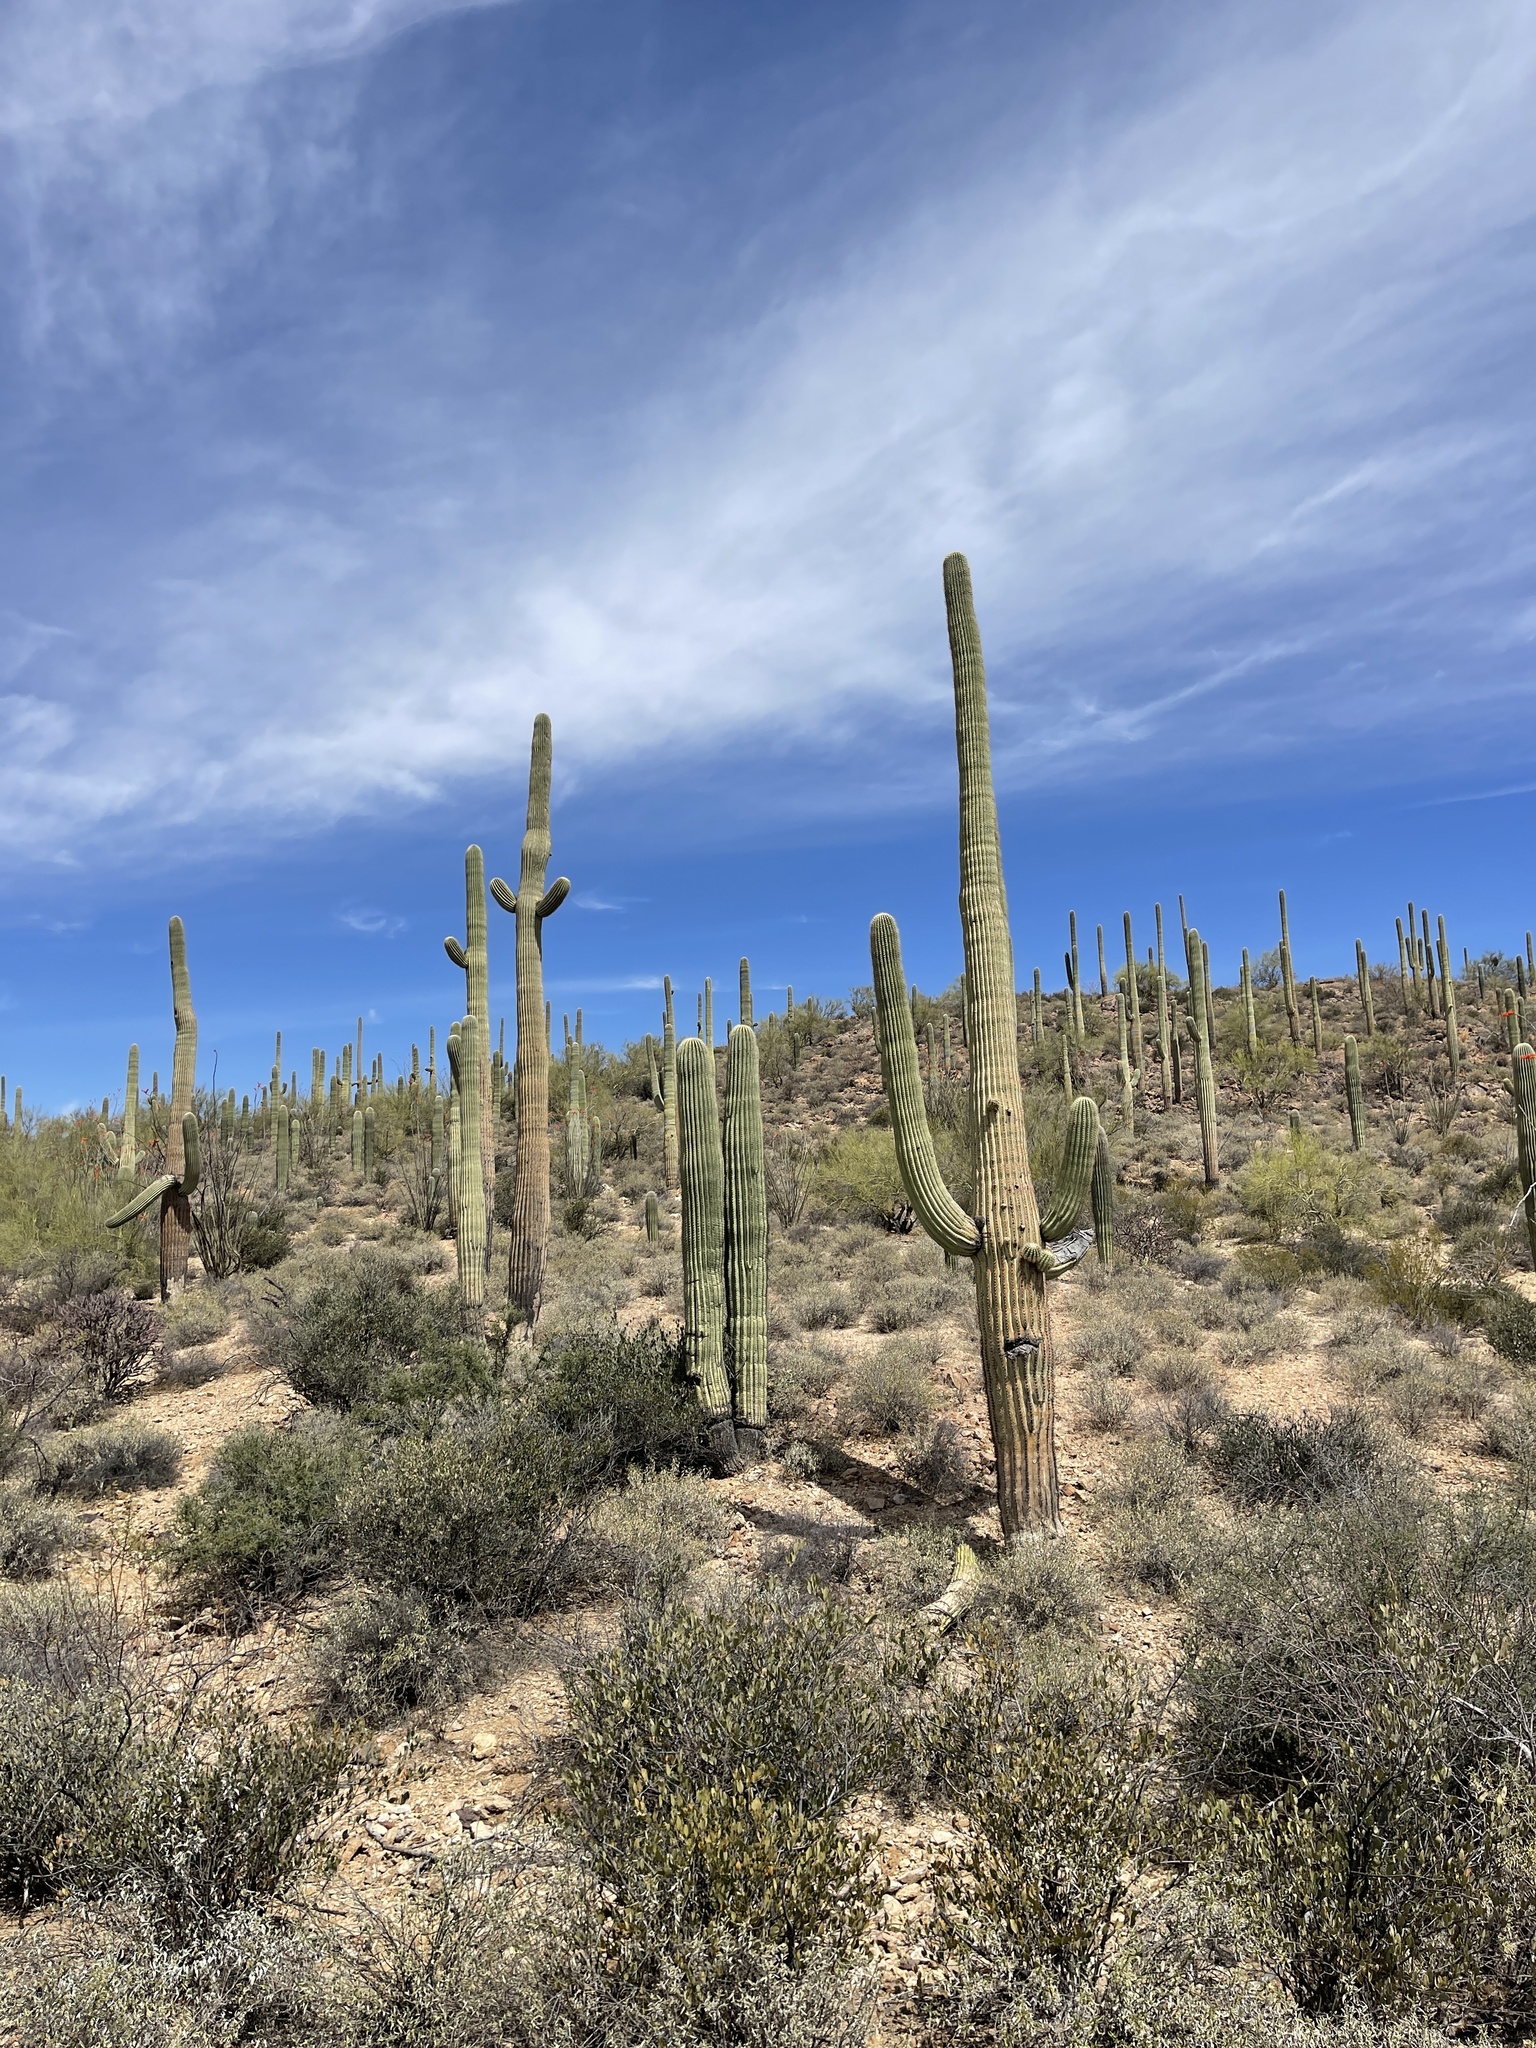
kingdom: Plantae
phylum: Tracheophyta
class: Magnoliopsida
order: Caryophyllales
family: Cactaceae
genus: Carnegiea
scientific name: Carnegiea gigantea
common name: Saguaro
